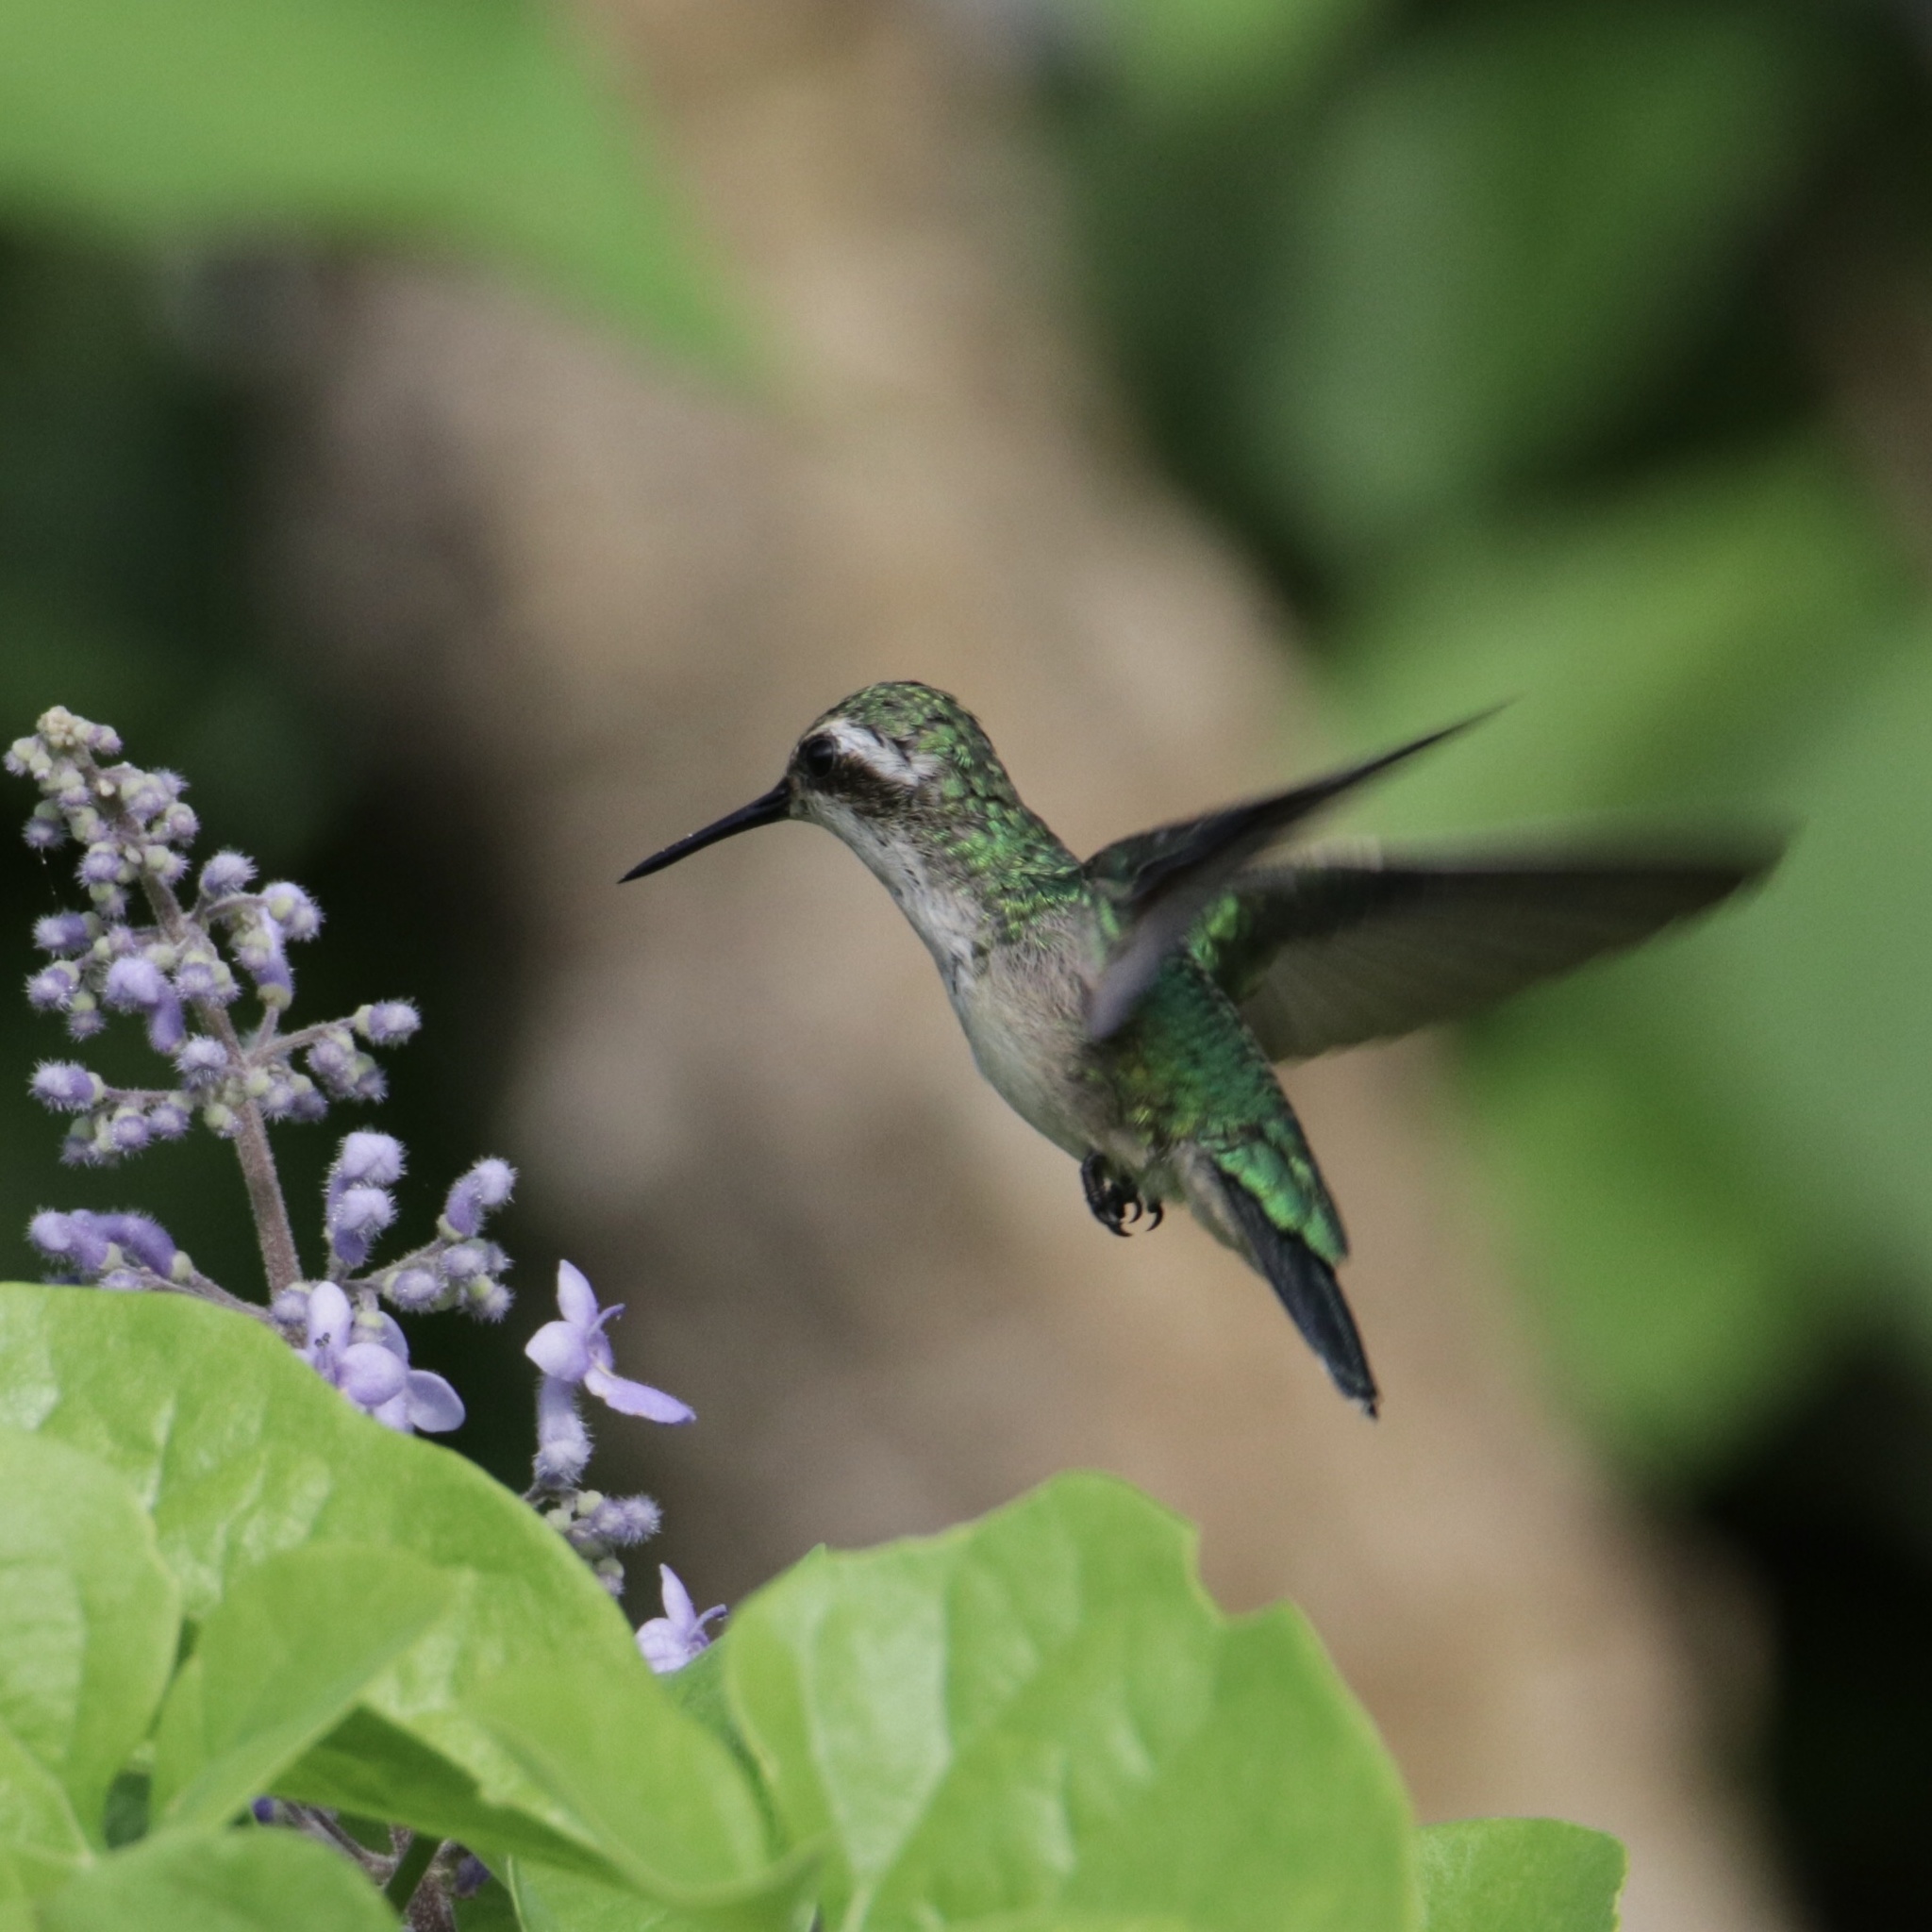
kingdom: Animalia
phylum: Chordata
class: Aves
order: Apodiformes
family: Trochilidae
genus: Chlorostilbon
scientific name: Chlorostilbon assimilis
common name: Garden emerald
